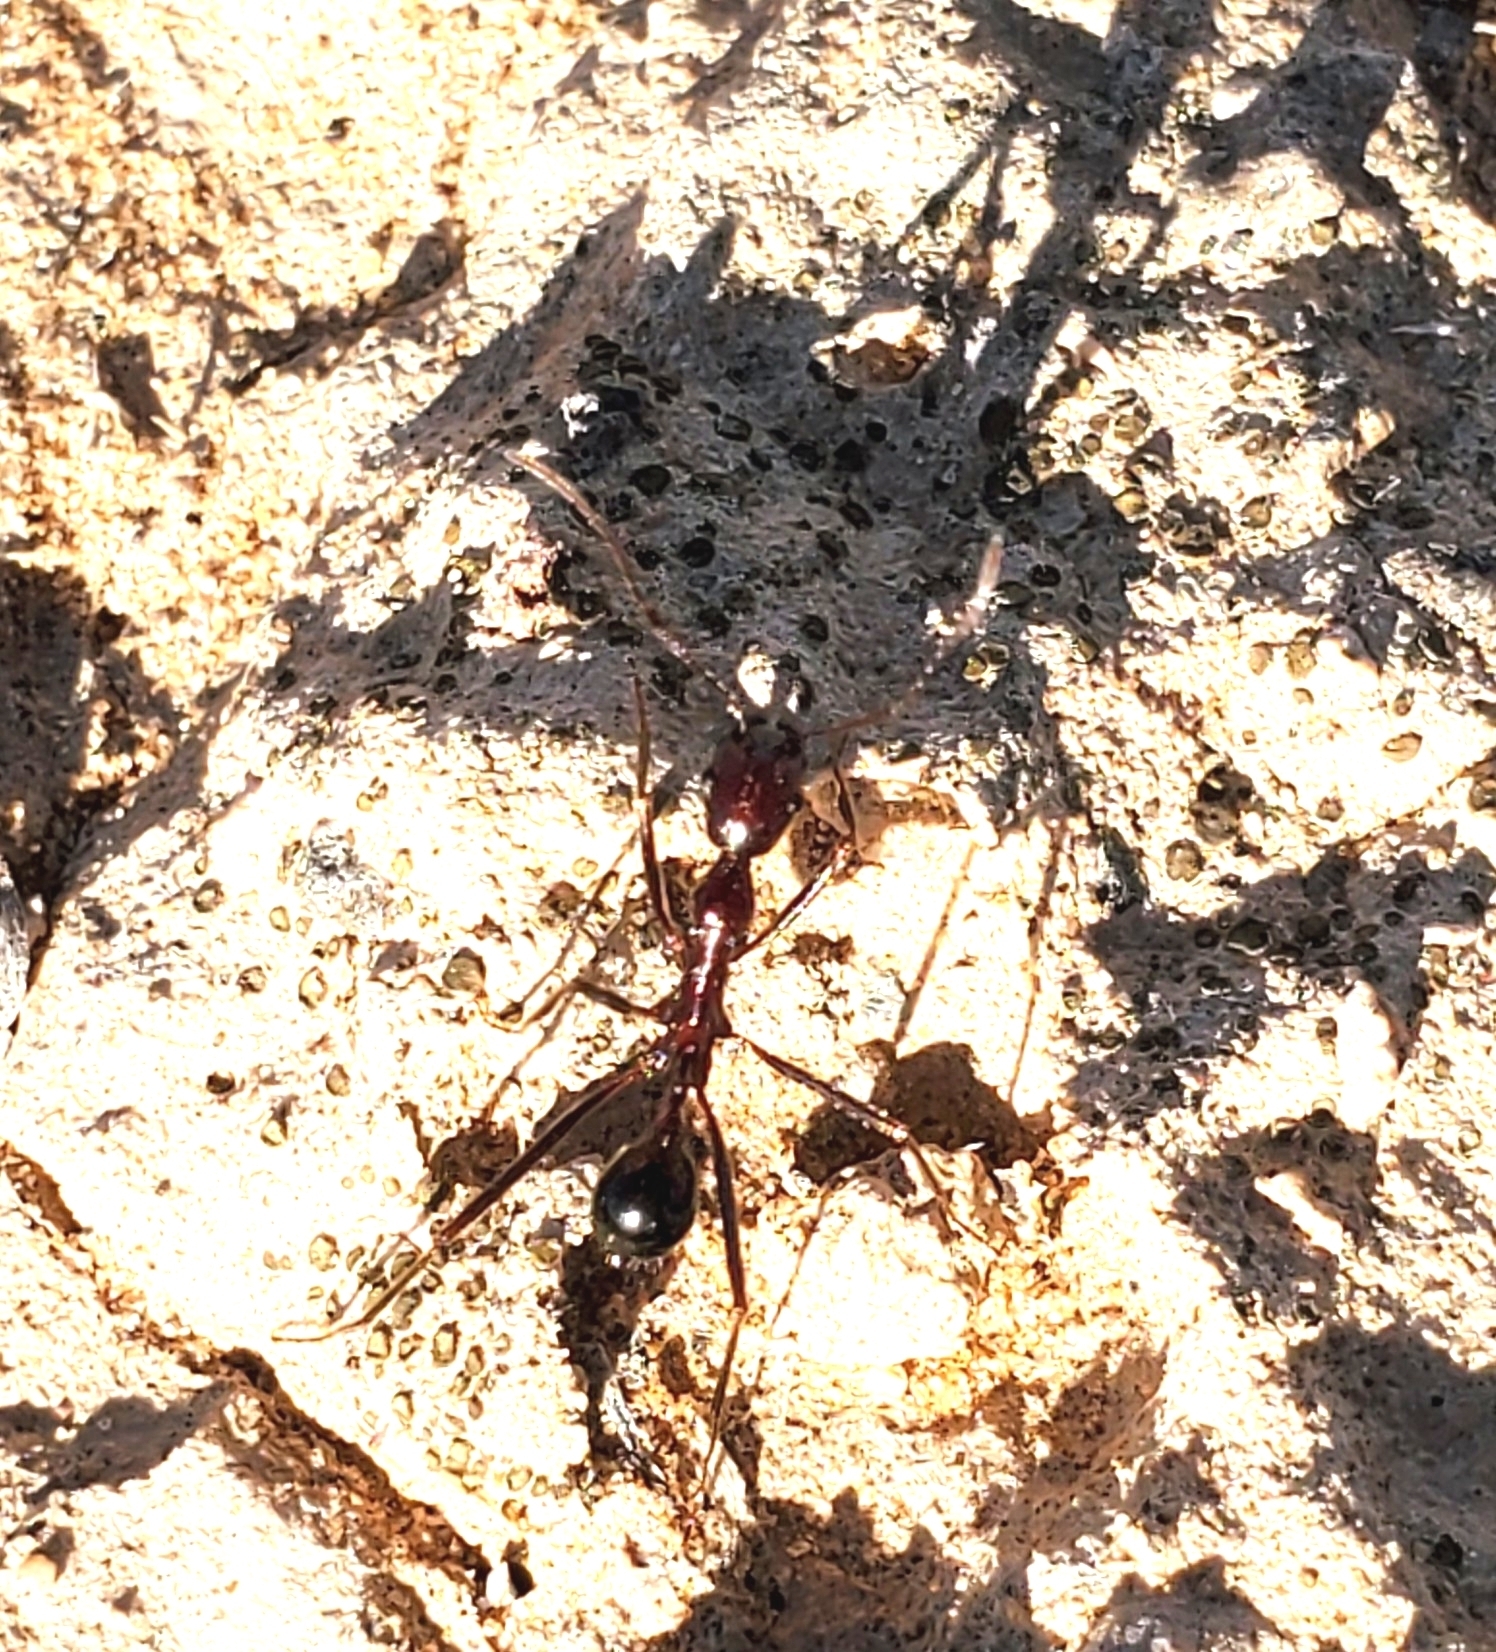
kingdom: Animalia
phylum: Arthropoda
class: Insecta
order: Hymenoptera
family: Formicidae
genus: Novomessor
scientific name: Novomessor cockerelli
